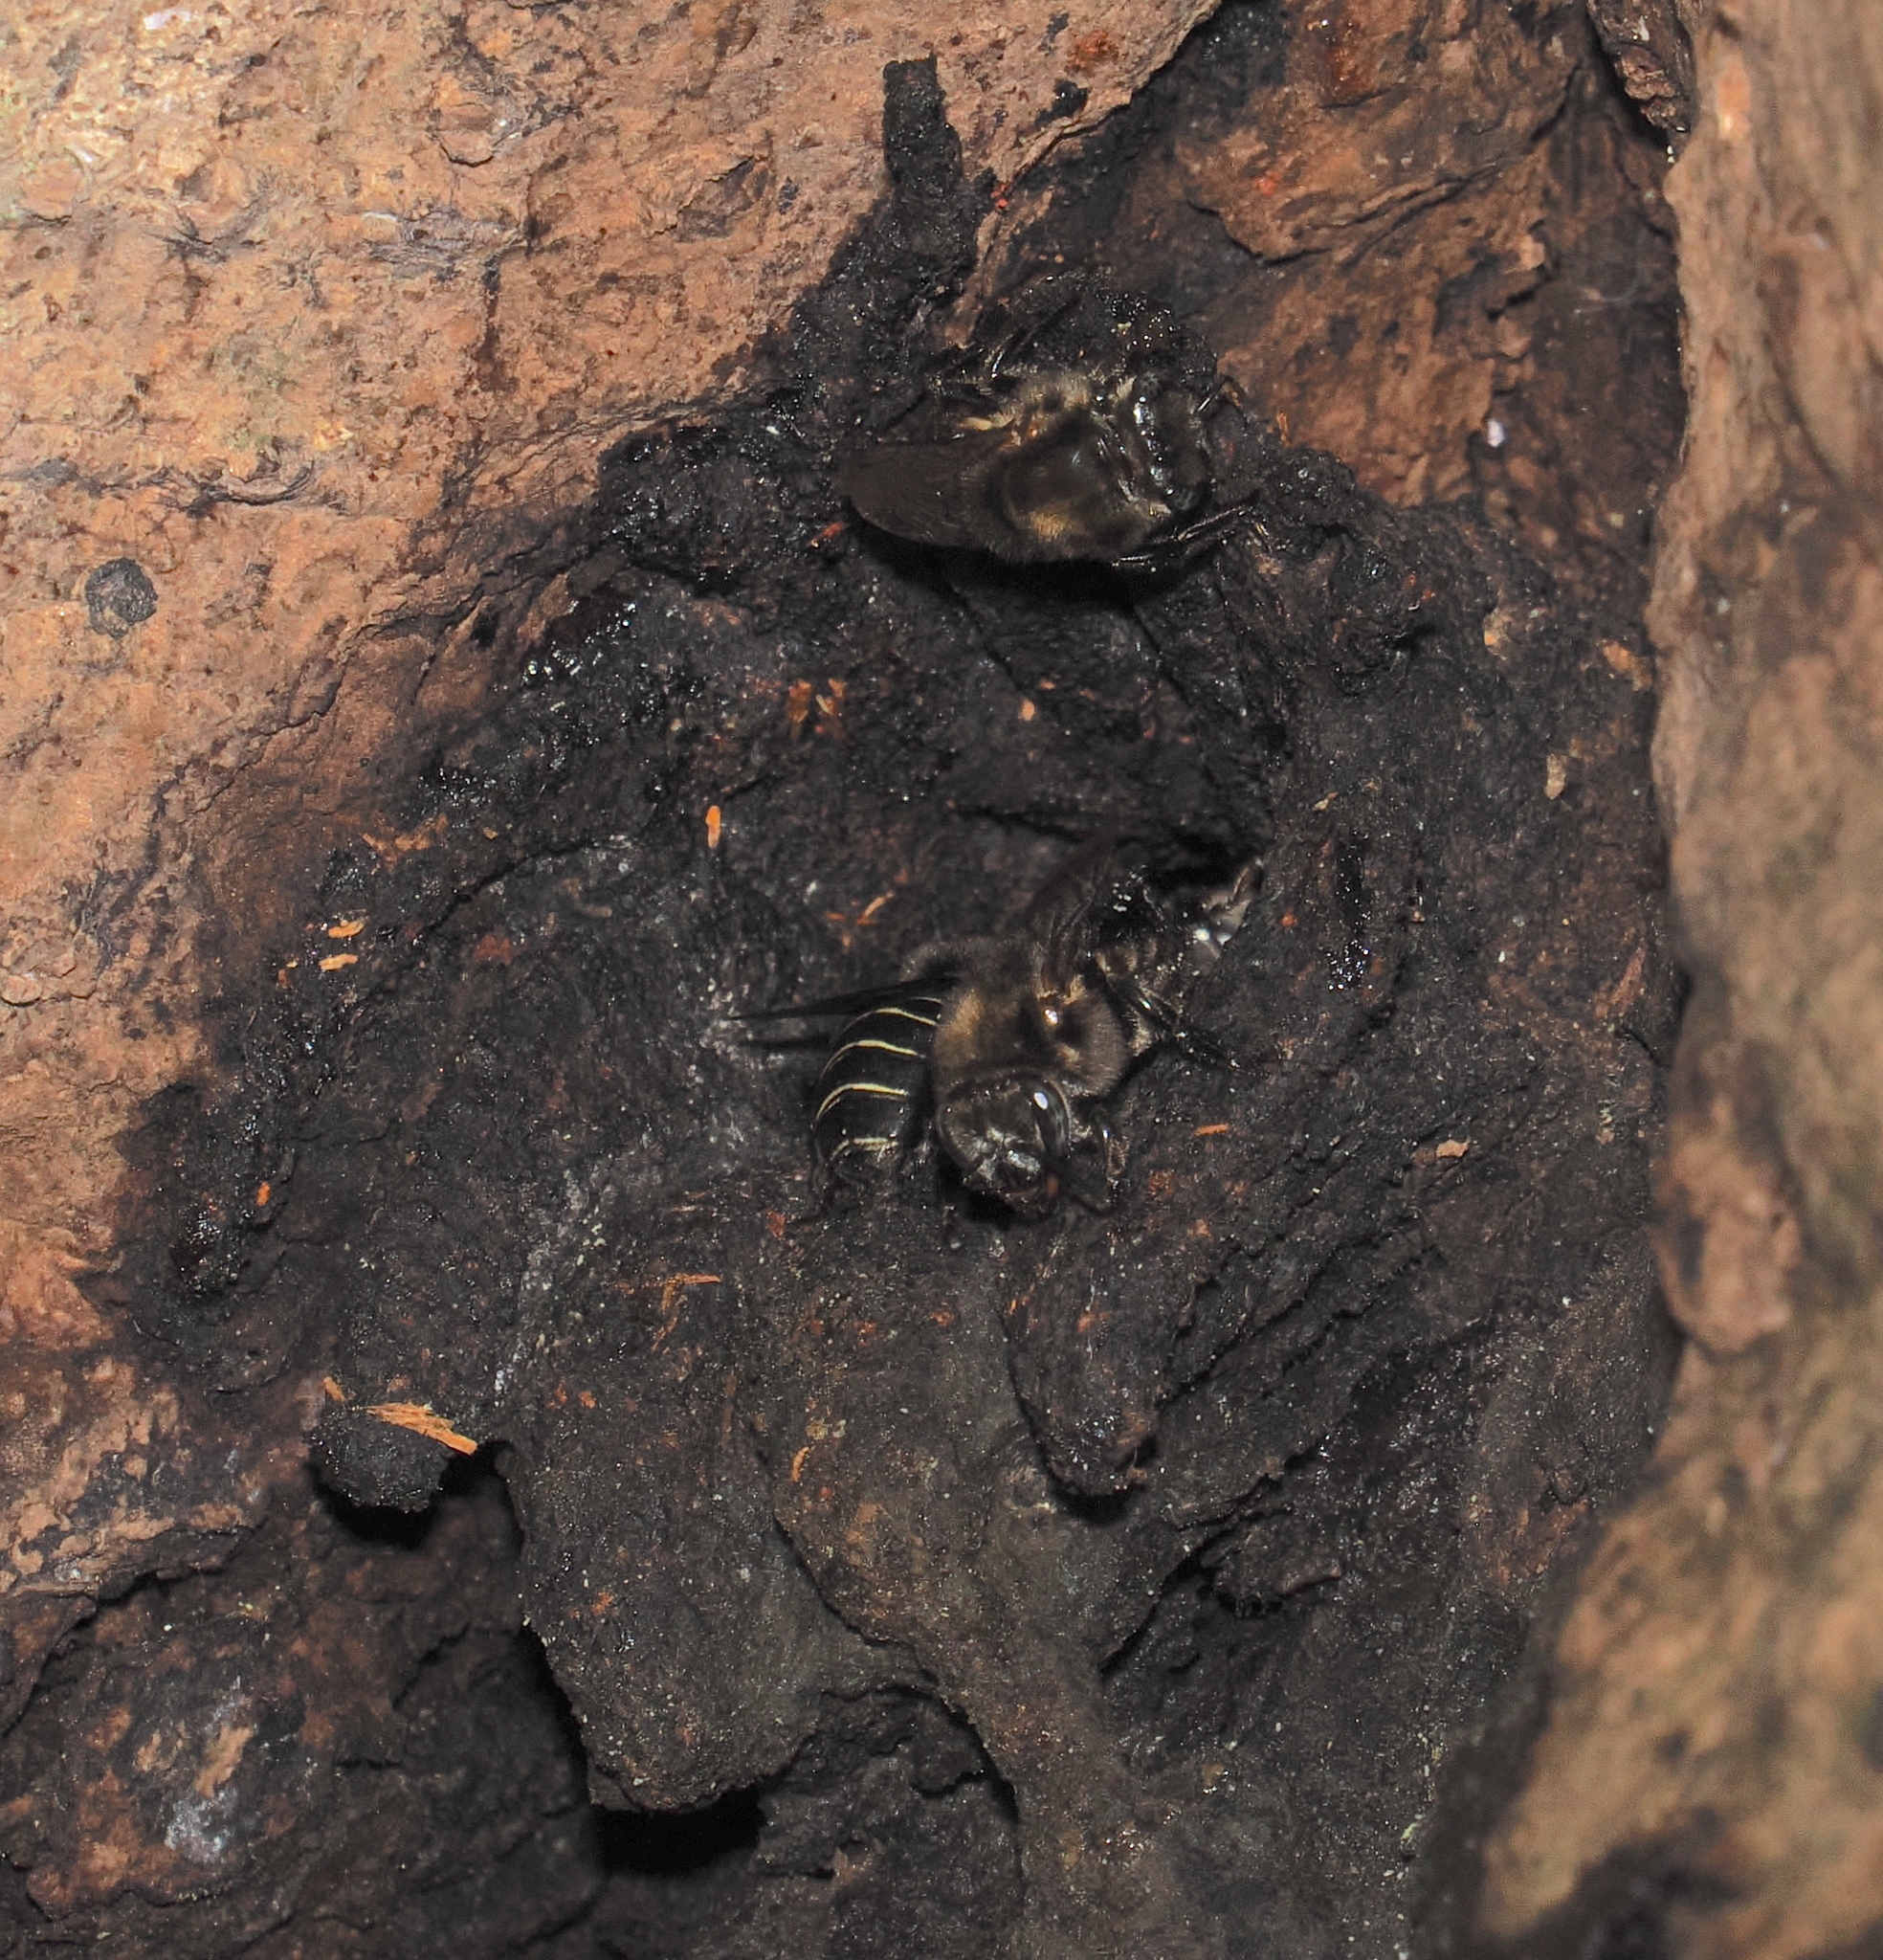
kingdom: Animalia
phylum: Arthropoda
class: Insecta
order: Hymenoptera
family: Apidae
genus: Melipona
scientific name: Melipona nigrescens
